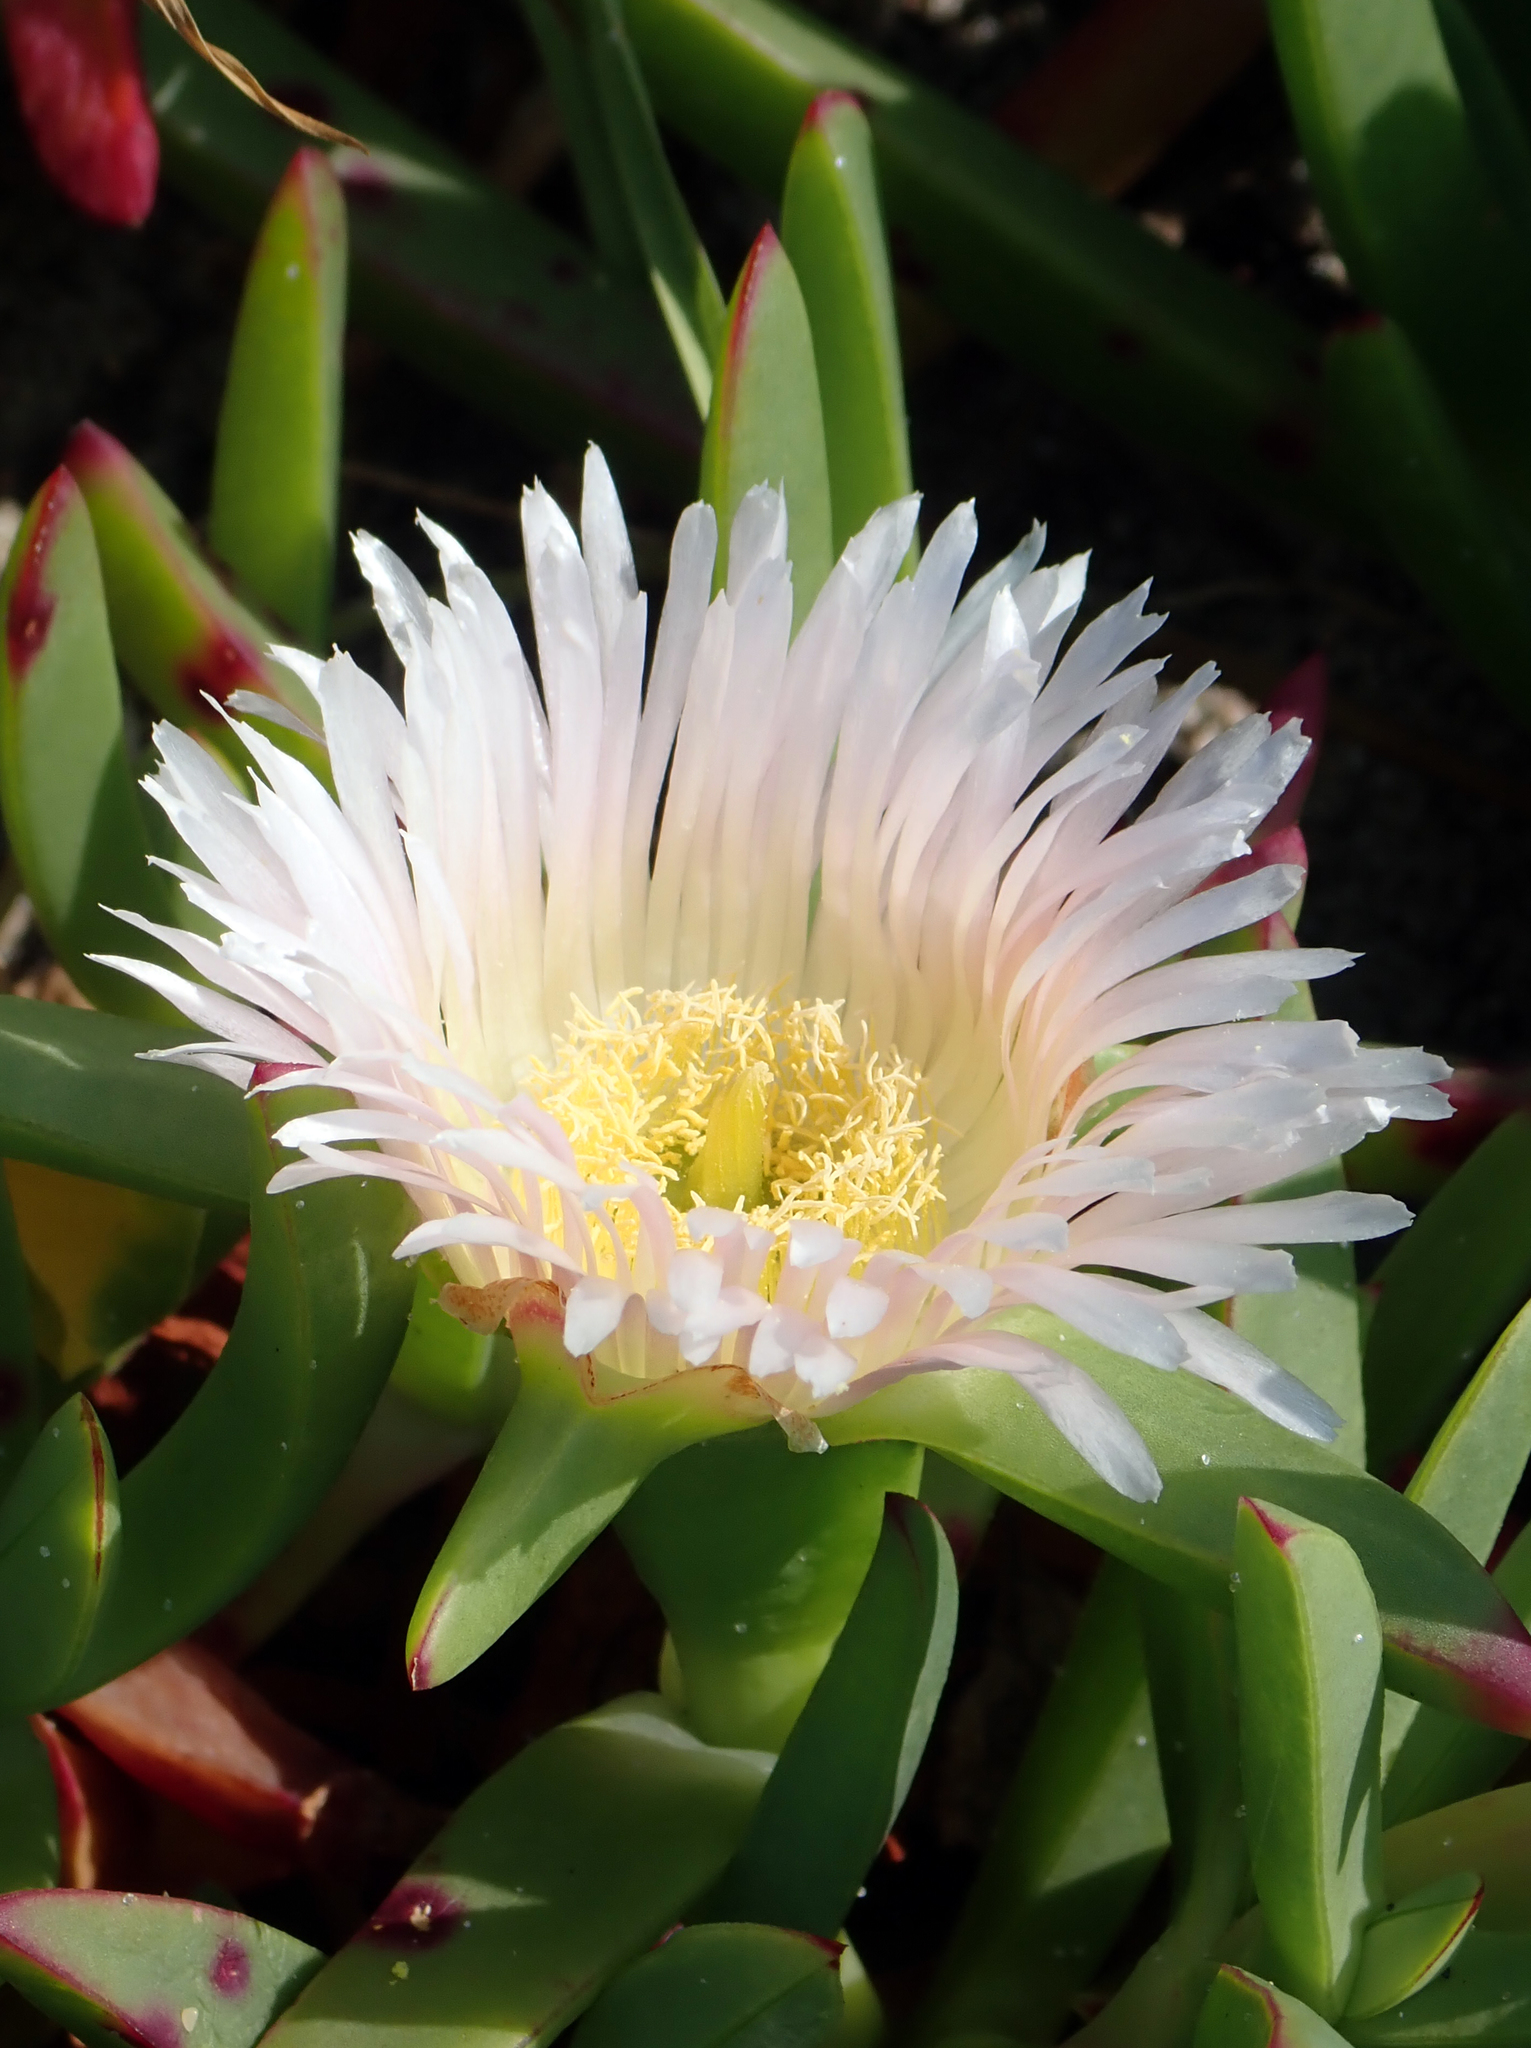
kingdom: Plantae
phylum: Tracheophyta
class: Magnoliopsida
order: Caryophyllales
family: Aizoaceae
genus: Carpobrotus
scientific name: Carpobrotus edulis
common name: Hottentot-fig
